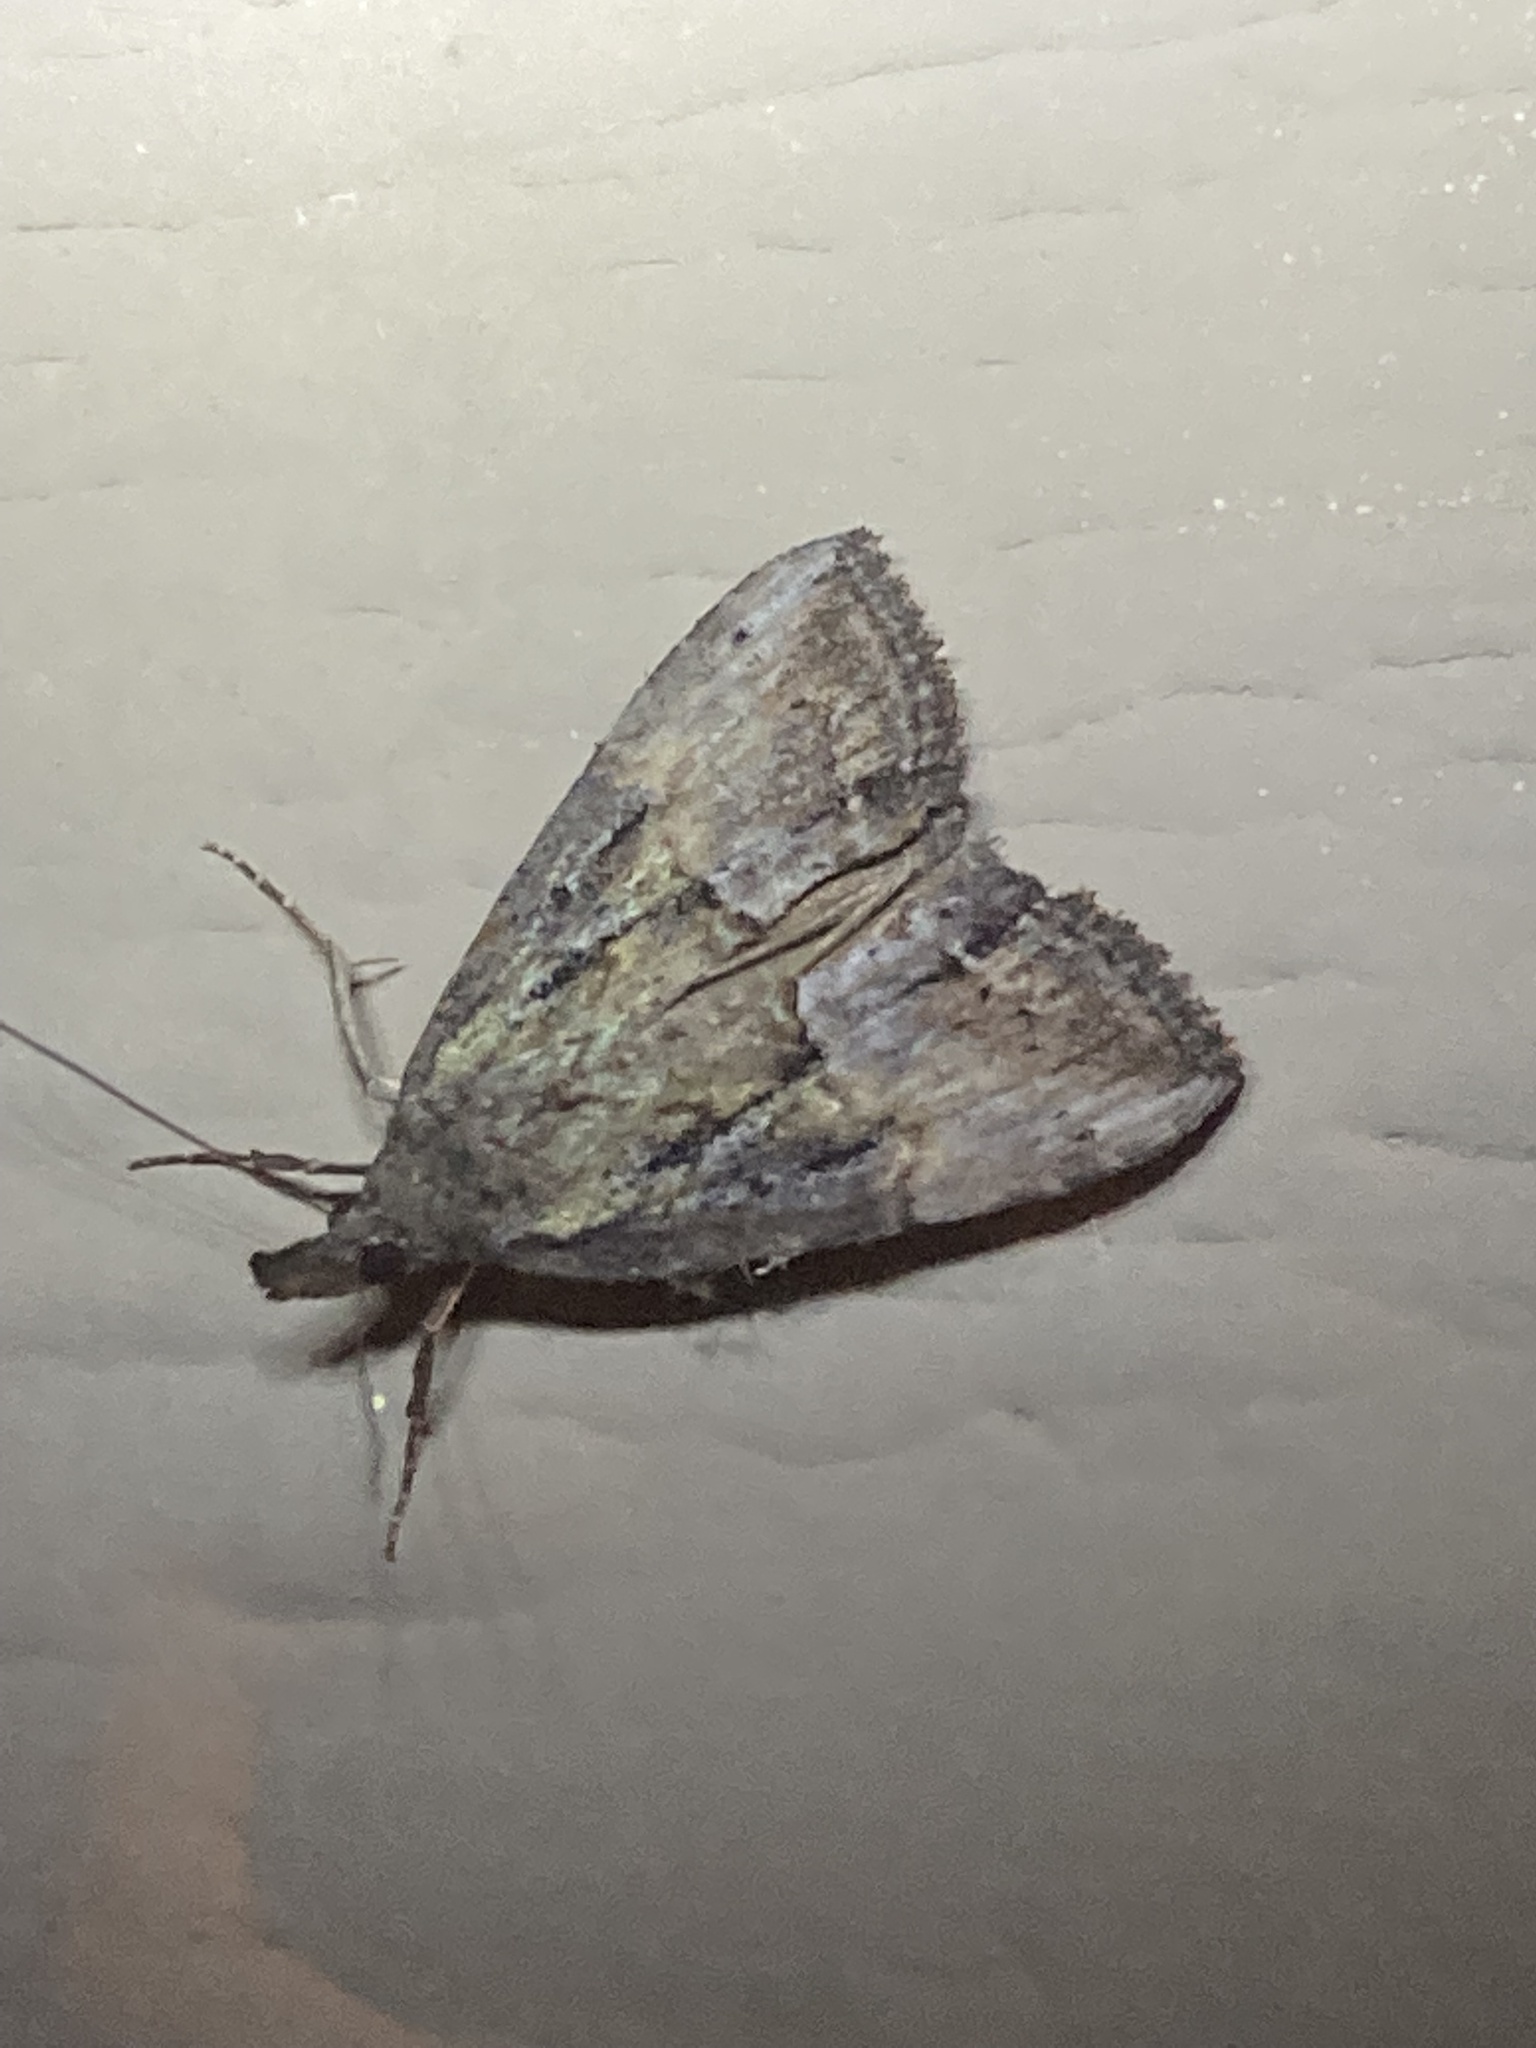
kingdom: Animalia
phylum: Arthropoda
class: Insecta
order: Lepidoptera
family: Erebidae
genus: Hypena
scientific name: Hypena scabra
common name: Green cloverworm
